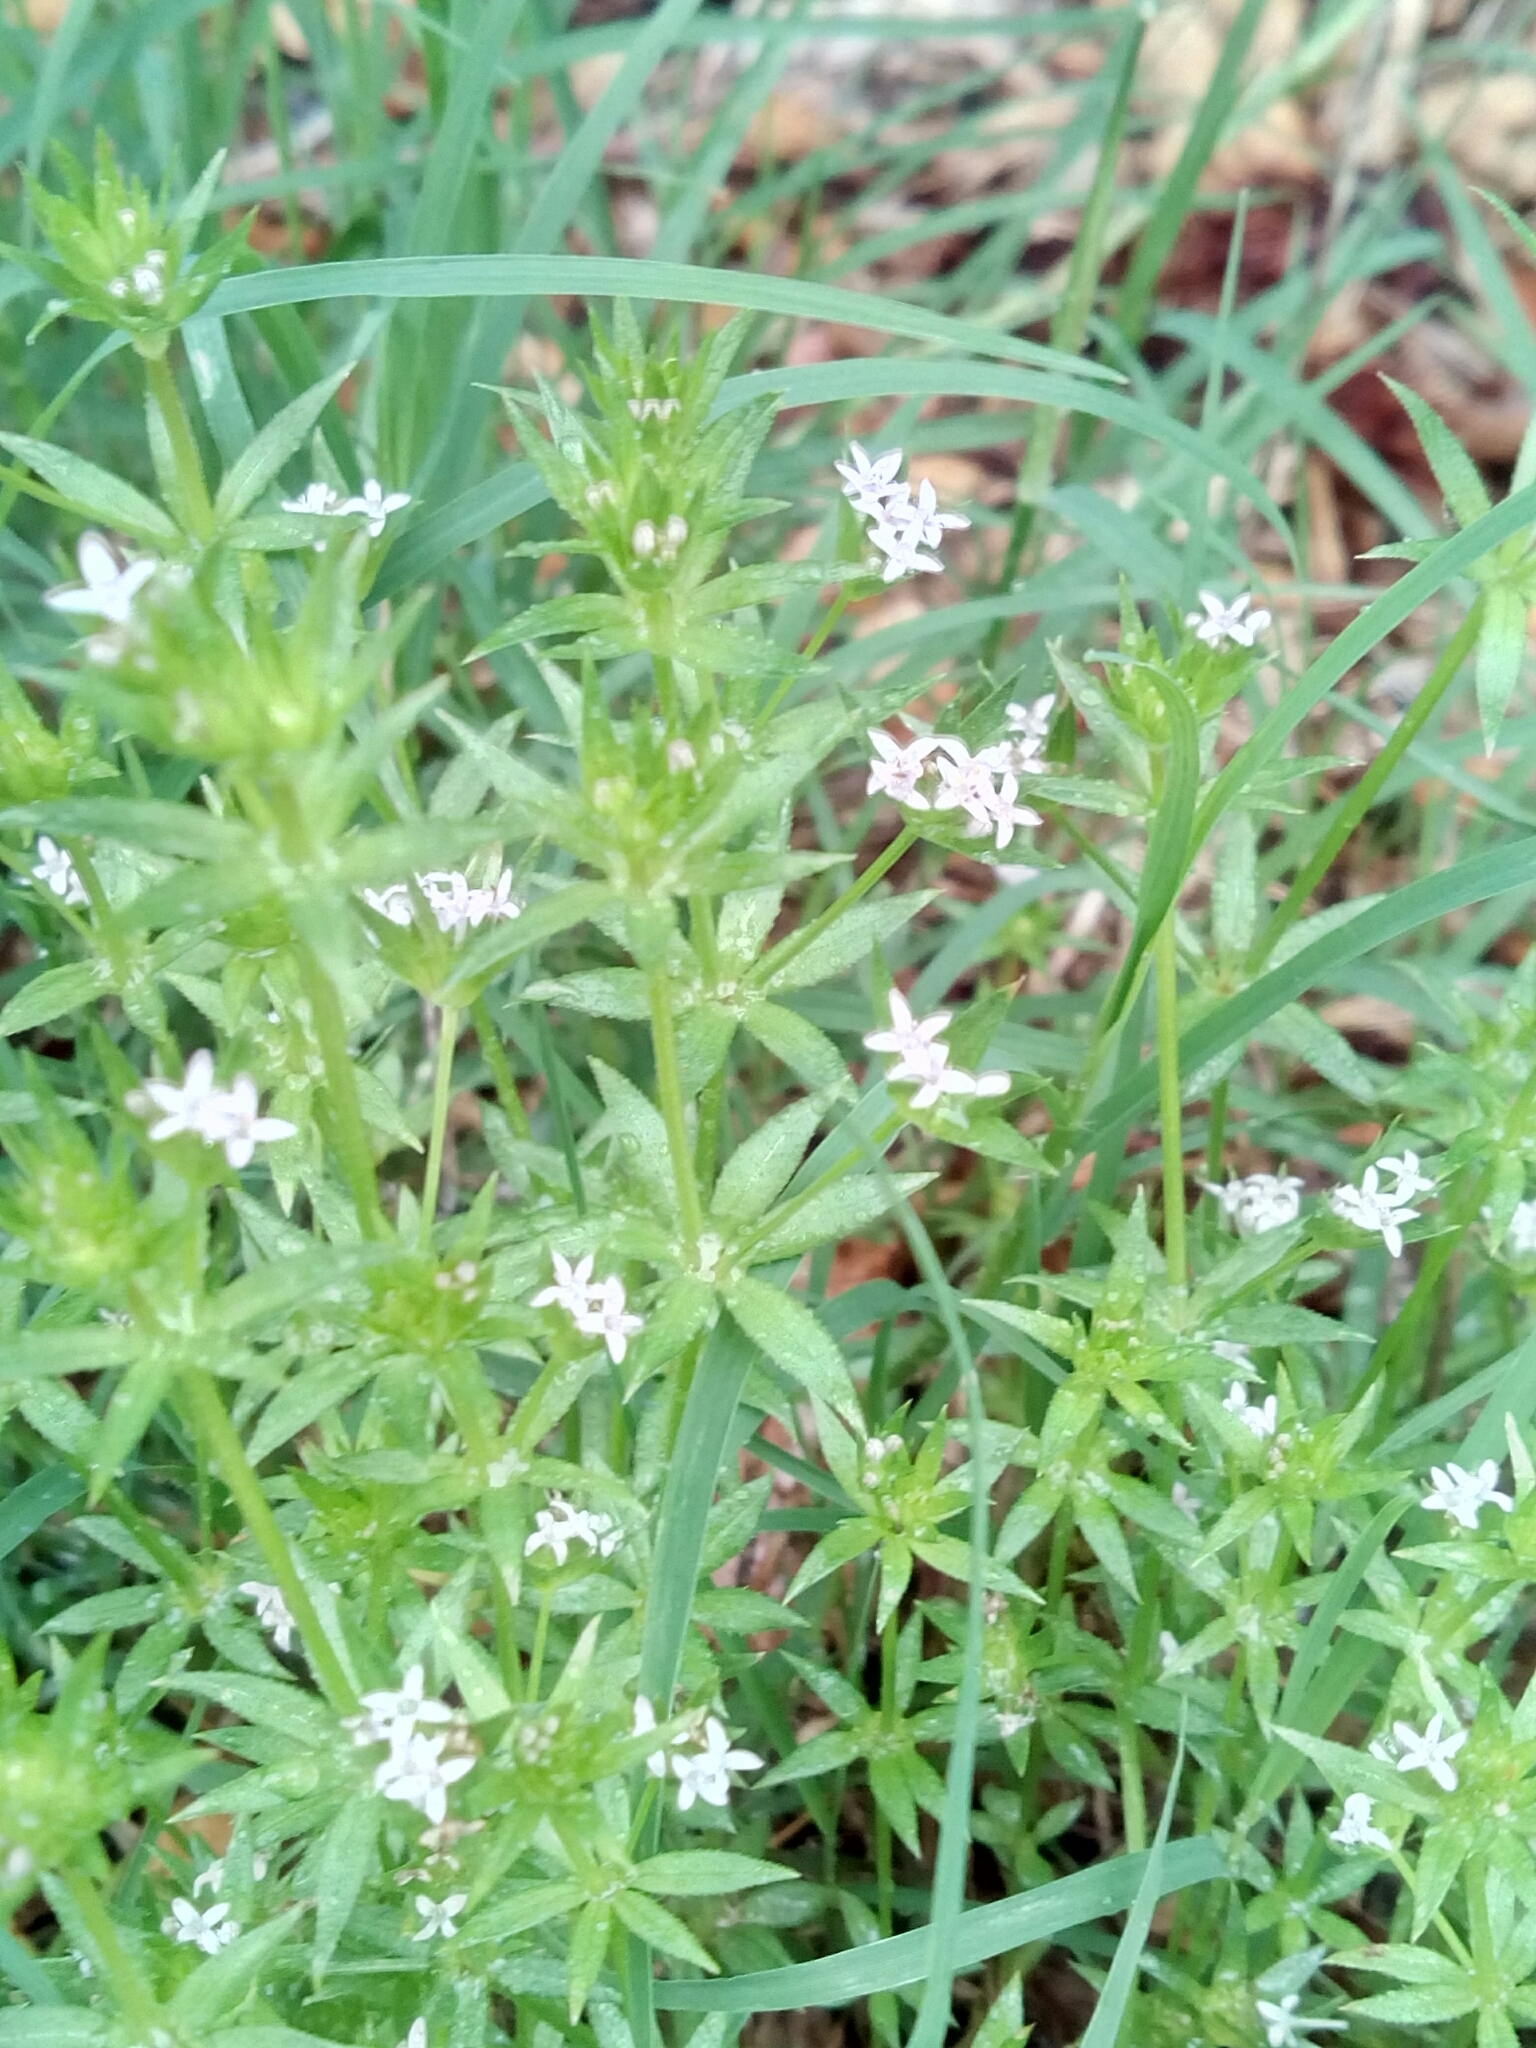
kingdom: Plantae
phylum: Tracheophyta
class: Magnoliopsida
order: Gentianales
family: Rubiaceae
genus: Sherardia
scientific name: Sherardia arvensis
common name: Field madder
